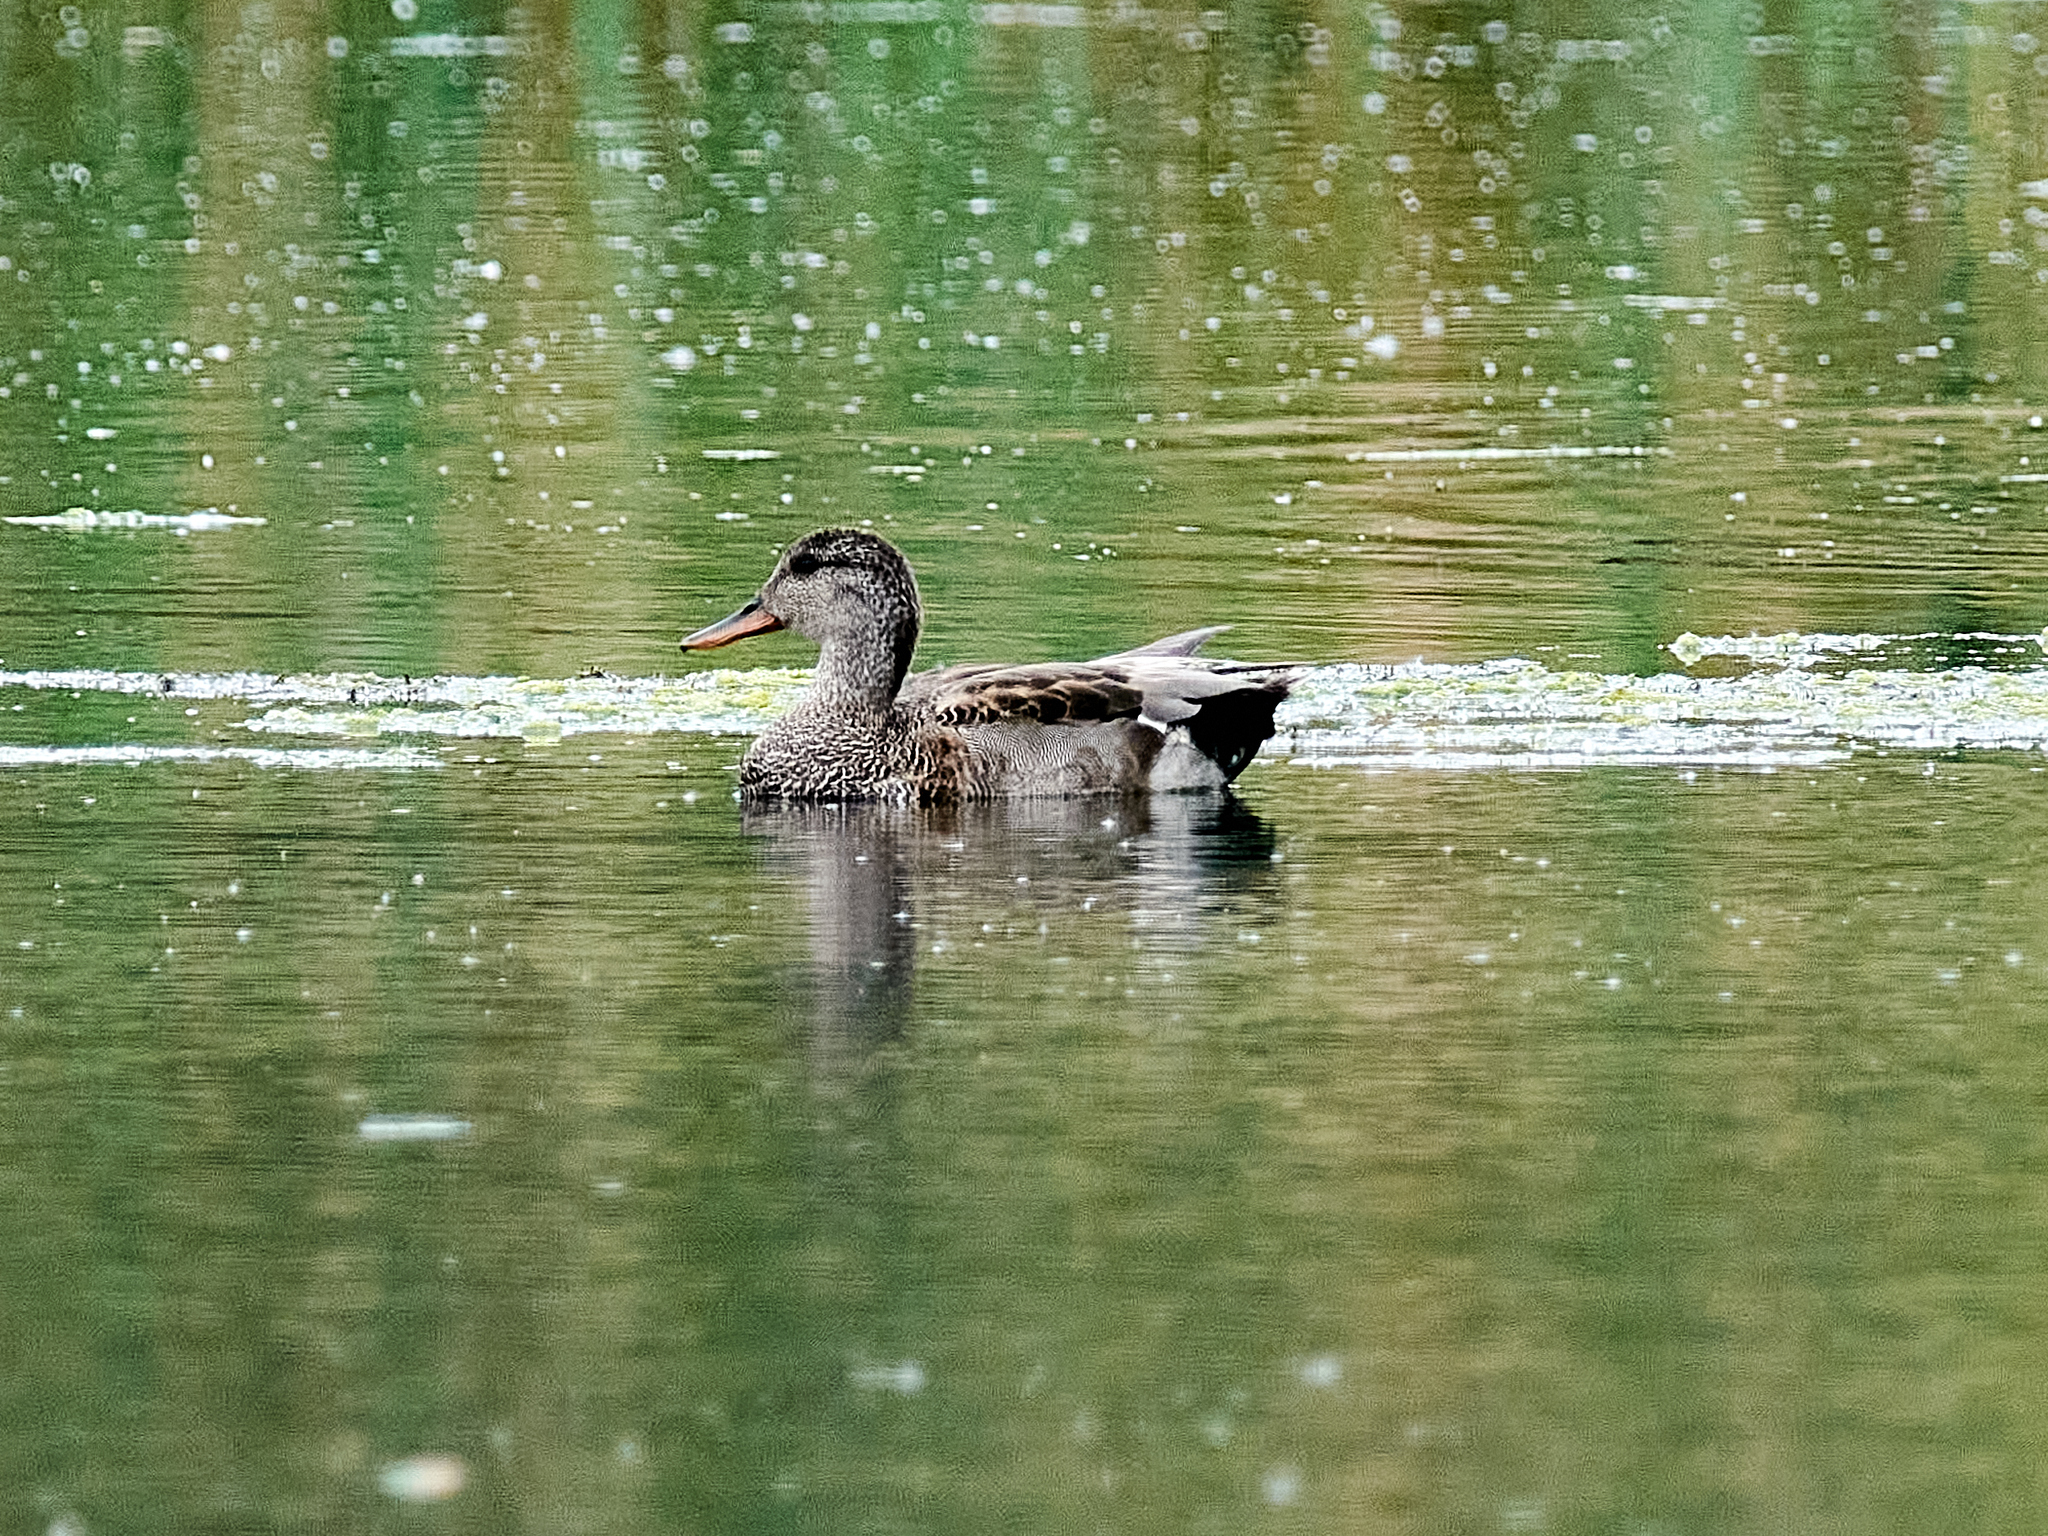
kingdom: Animalia
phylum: Chordata
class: Aves
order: Anseriformes
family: Anatidae
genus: Mareca
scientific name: Mareca strepera
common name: Gadwall
